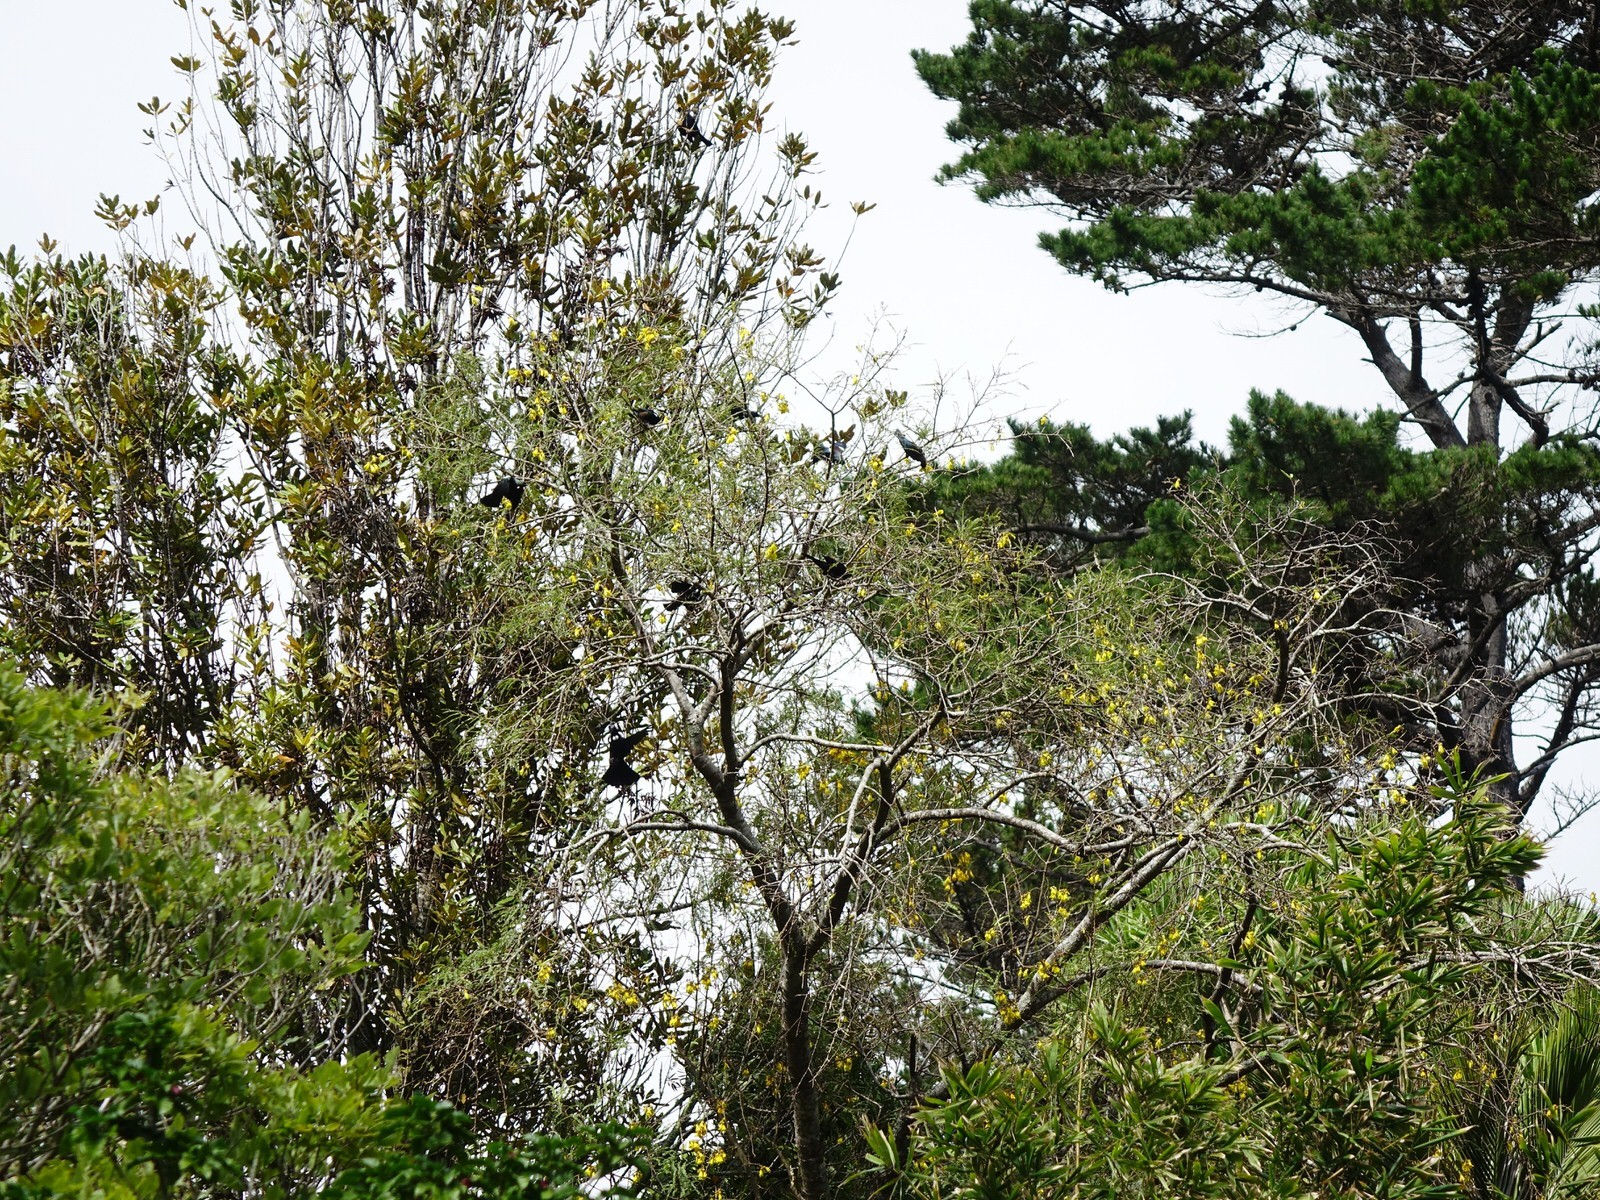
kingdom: Animalia
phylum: Chordata
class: Aves
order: Passeriformes
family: Meliphagidae
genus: Prosthemadera
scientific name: Prosthemadera novaeseelandiae
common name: Tui
